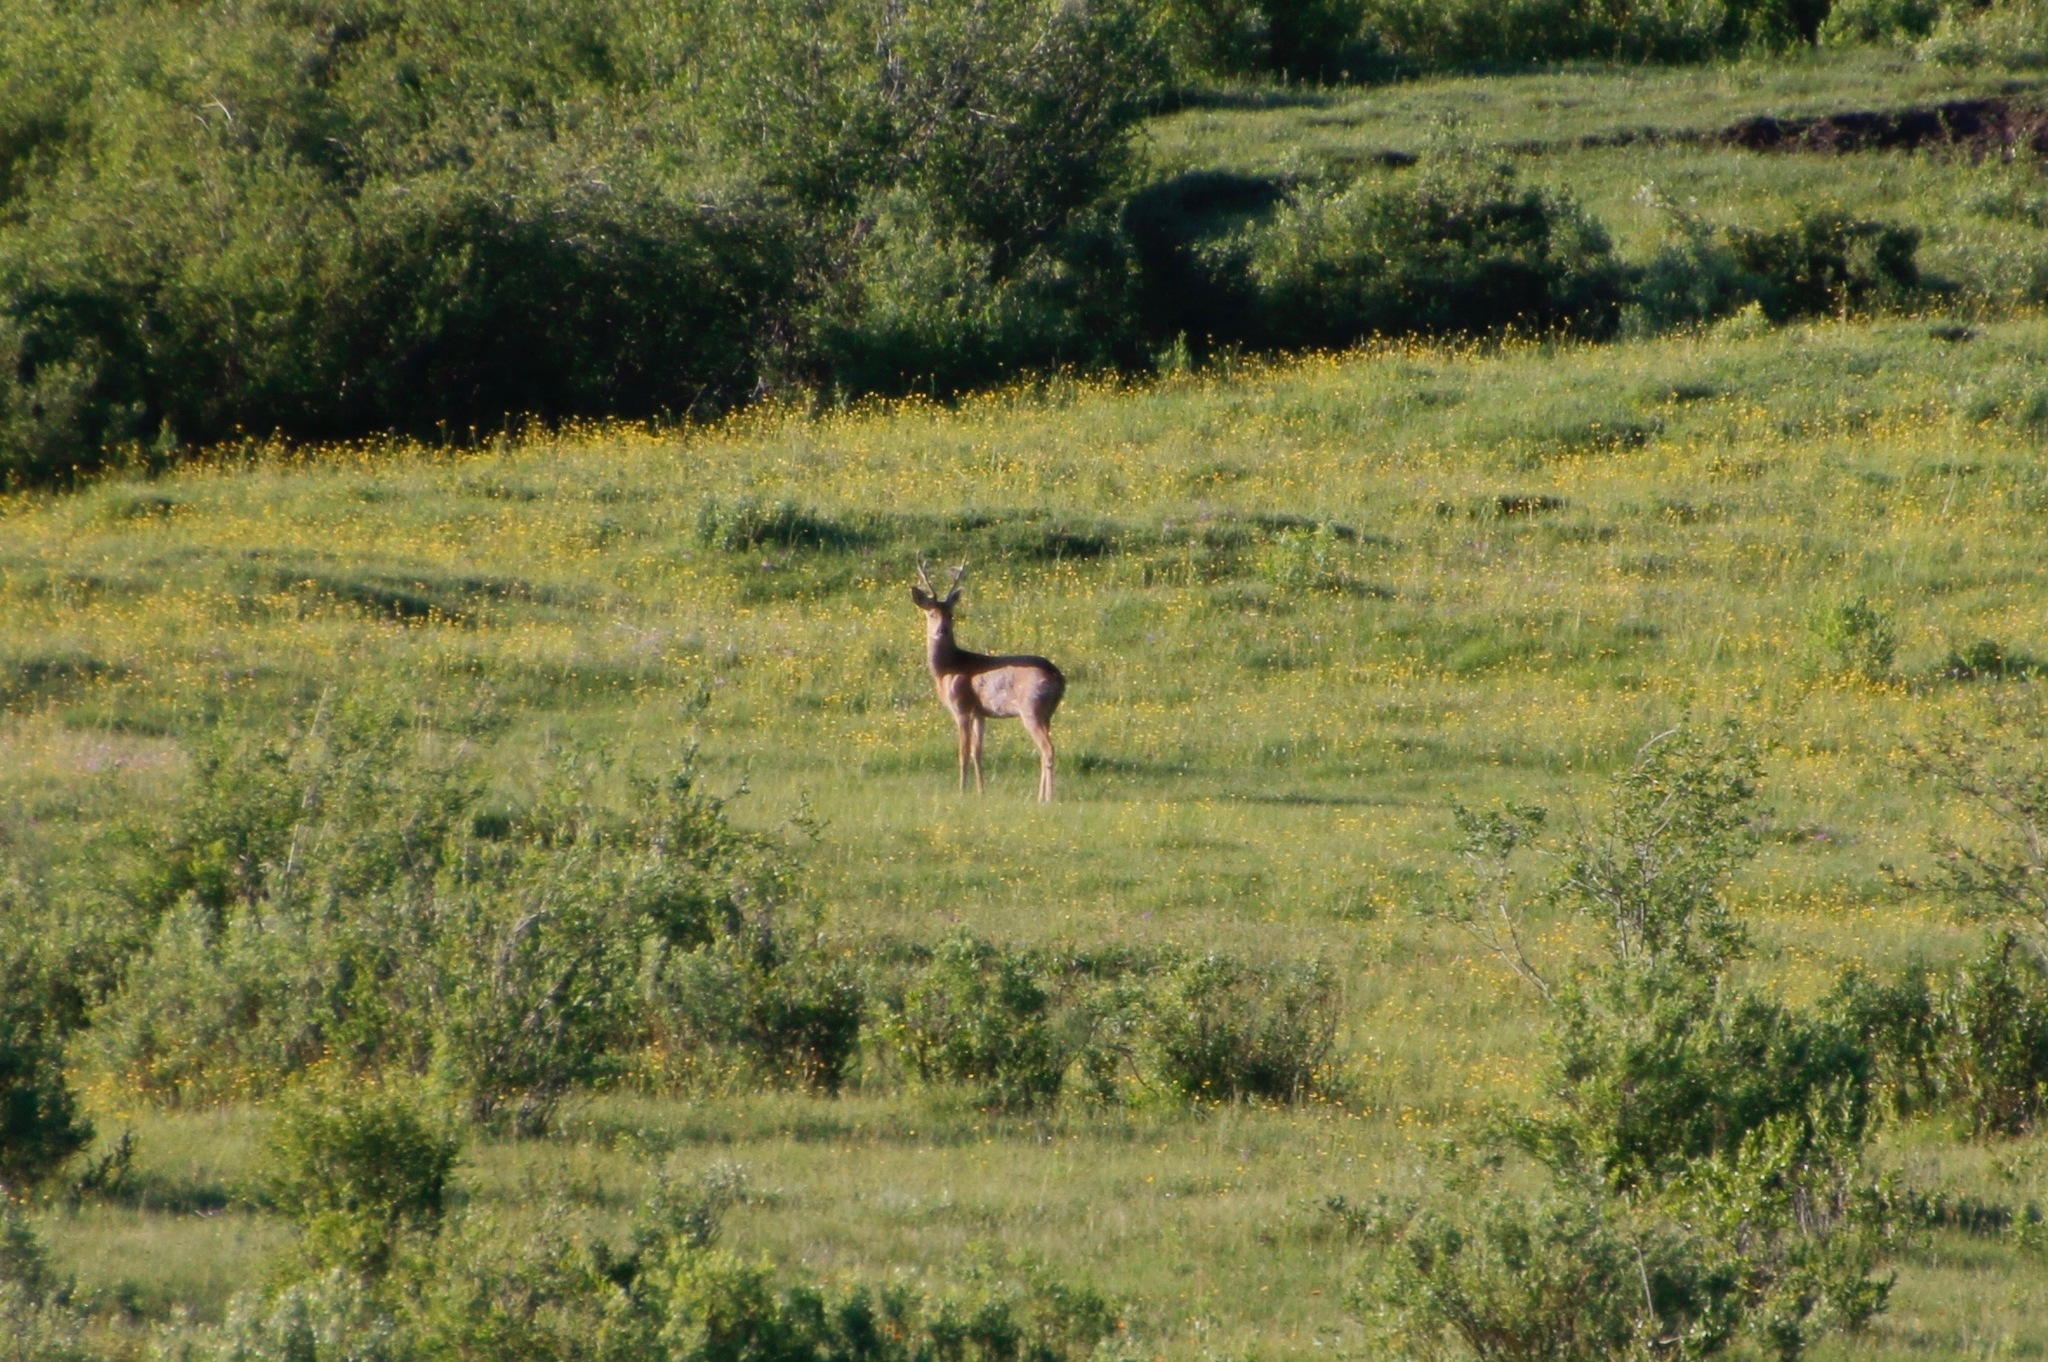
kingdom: Animalia
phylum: Chordata
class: Mammalia
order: Artiodactyla
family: Cervidae
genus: Capreolus
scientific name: Capreolus pygargus
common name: Siberian roe
